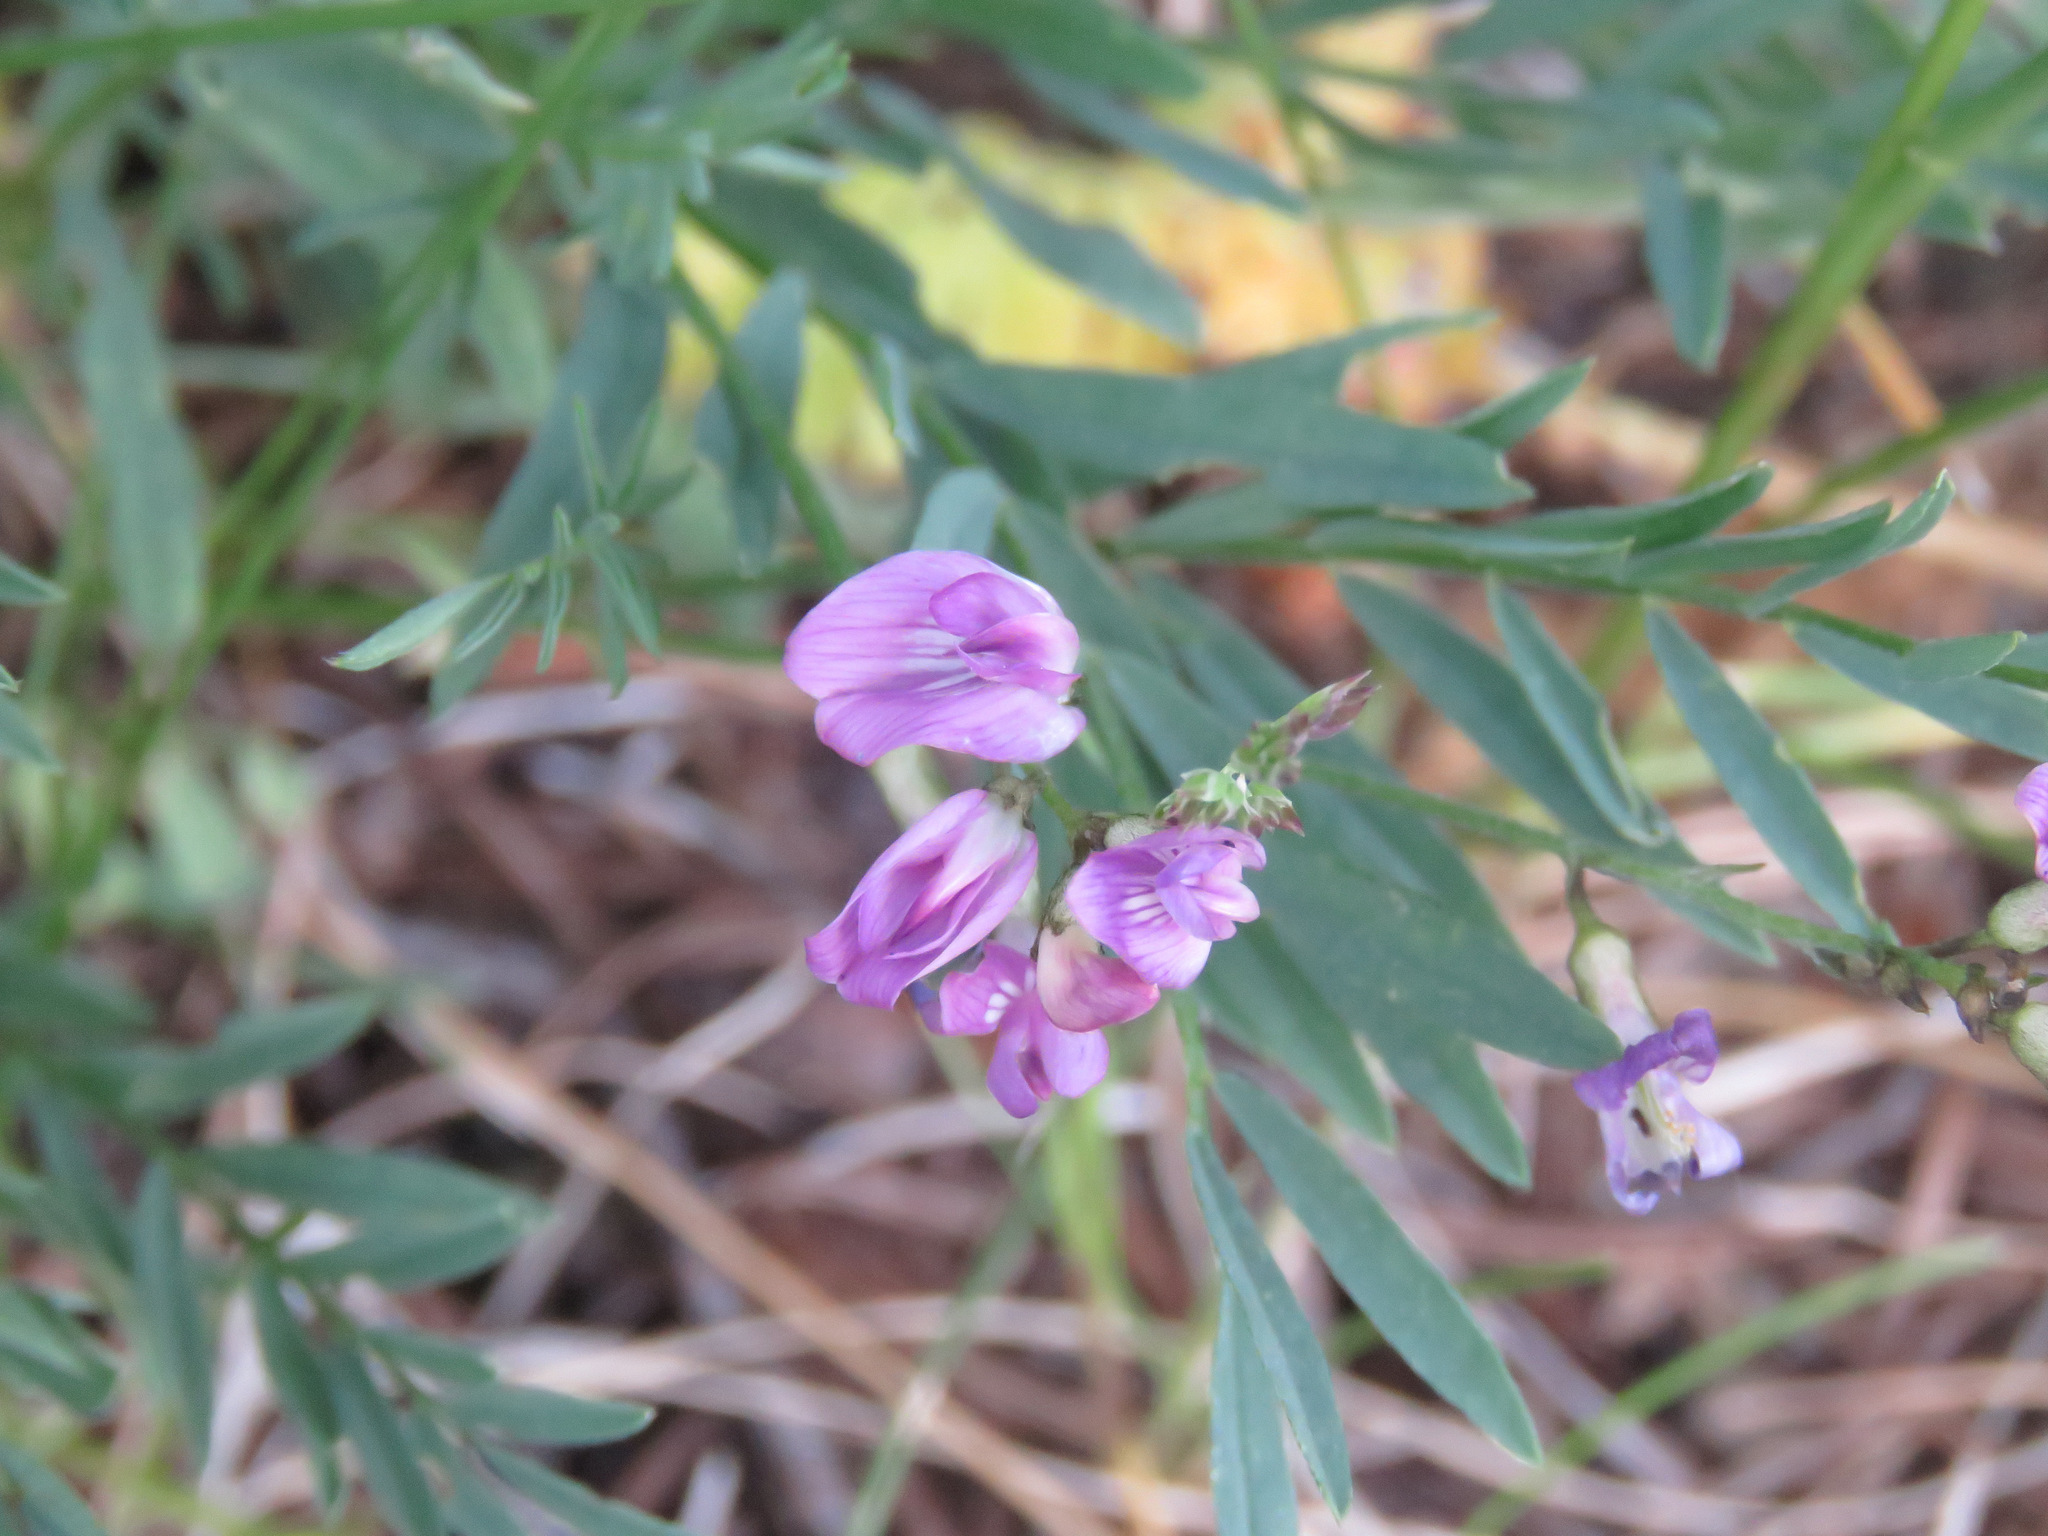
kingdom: Plantae
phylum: Tracheophyta
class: Magnoliopsida
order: Fabales
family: Fabaceae
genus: Astragalus
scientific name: Astragalus miser
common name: Timber milkvetch
